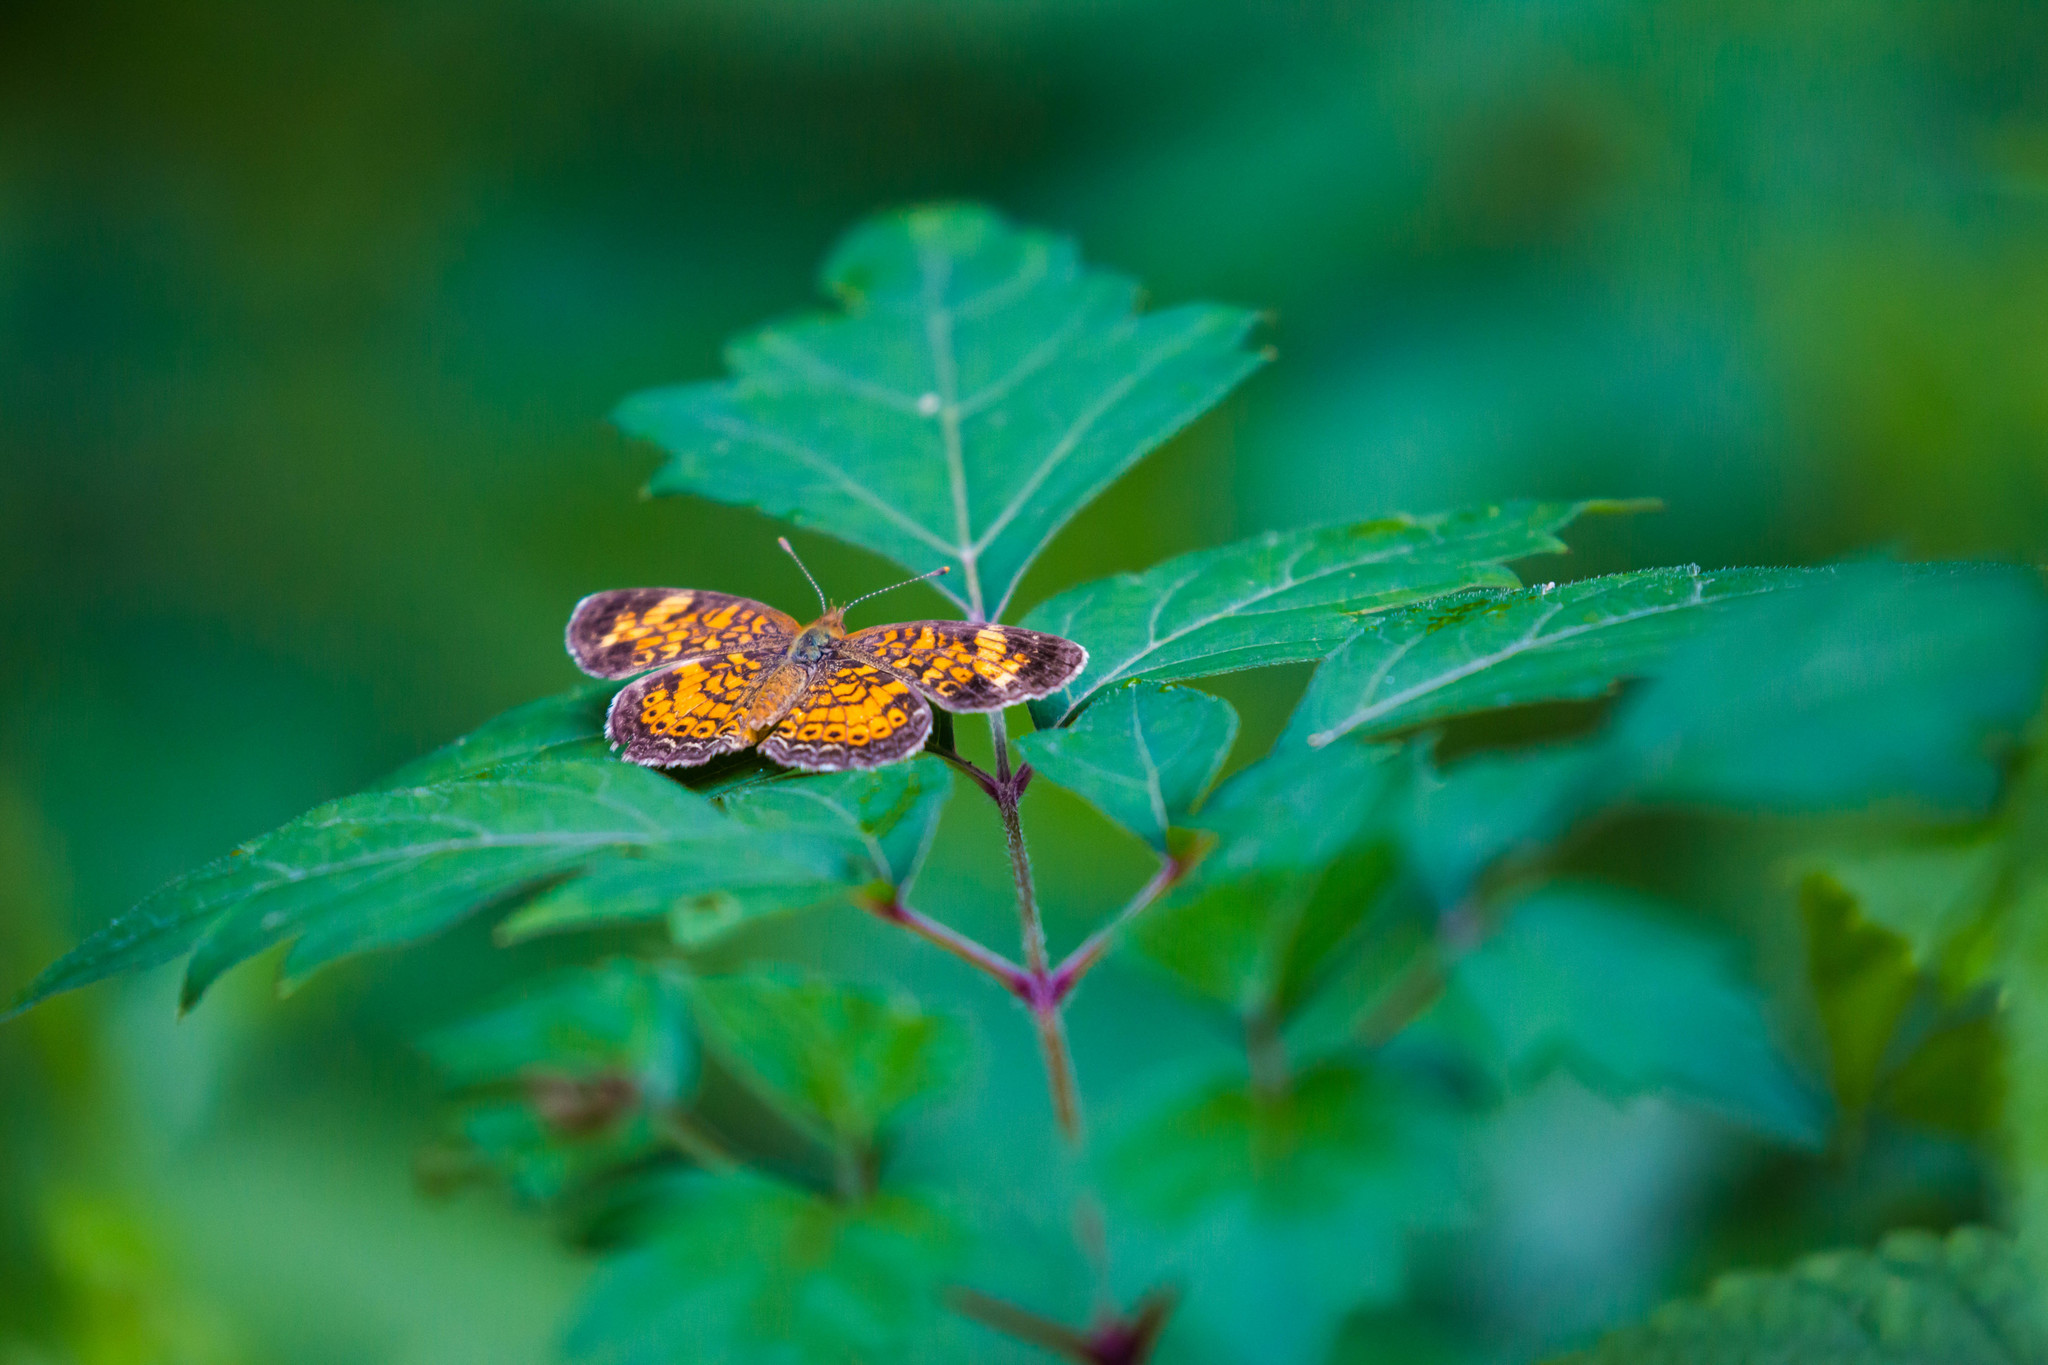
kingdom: Animalia
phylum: Arthropoda
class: Insecta
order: Lepidoptera
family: Nymphalidae
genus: Phyciodes
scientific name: Phyciodes tharos
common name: Pearl crescent
